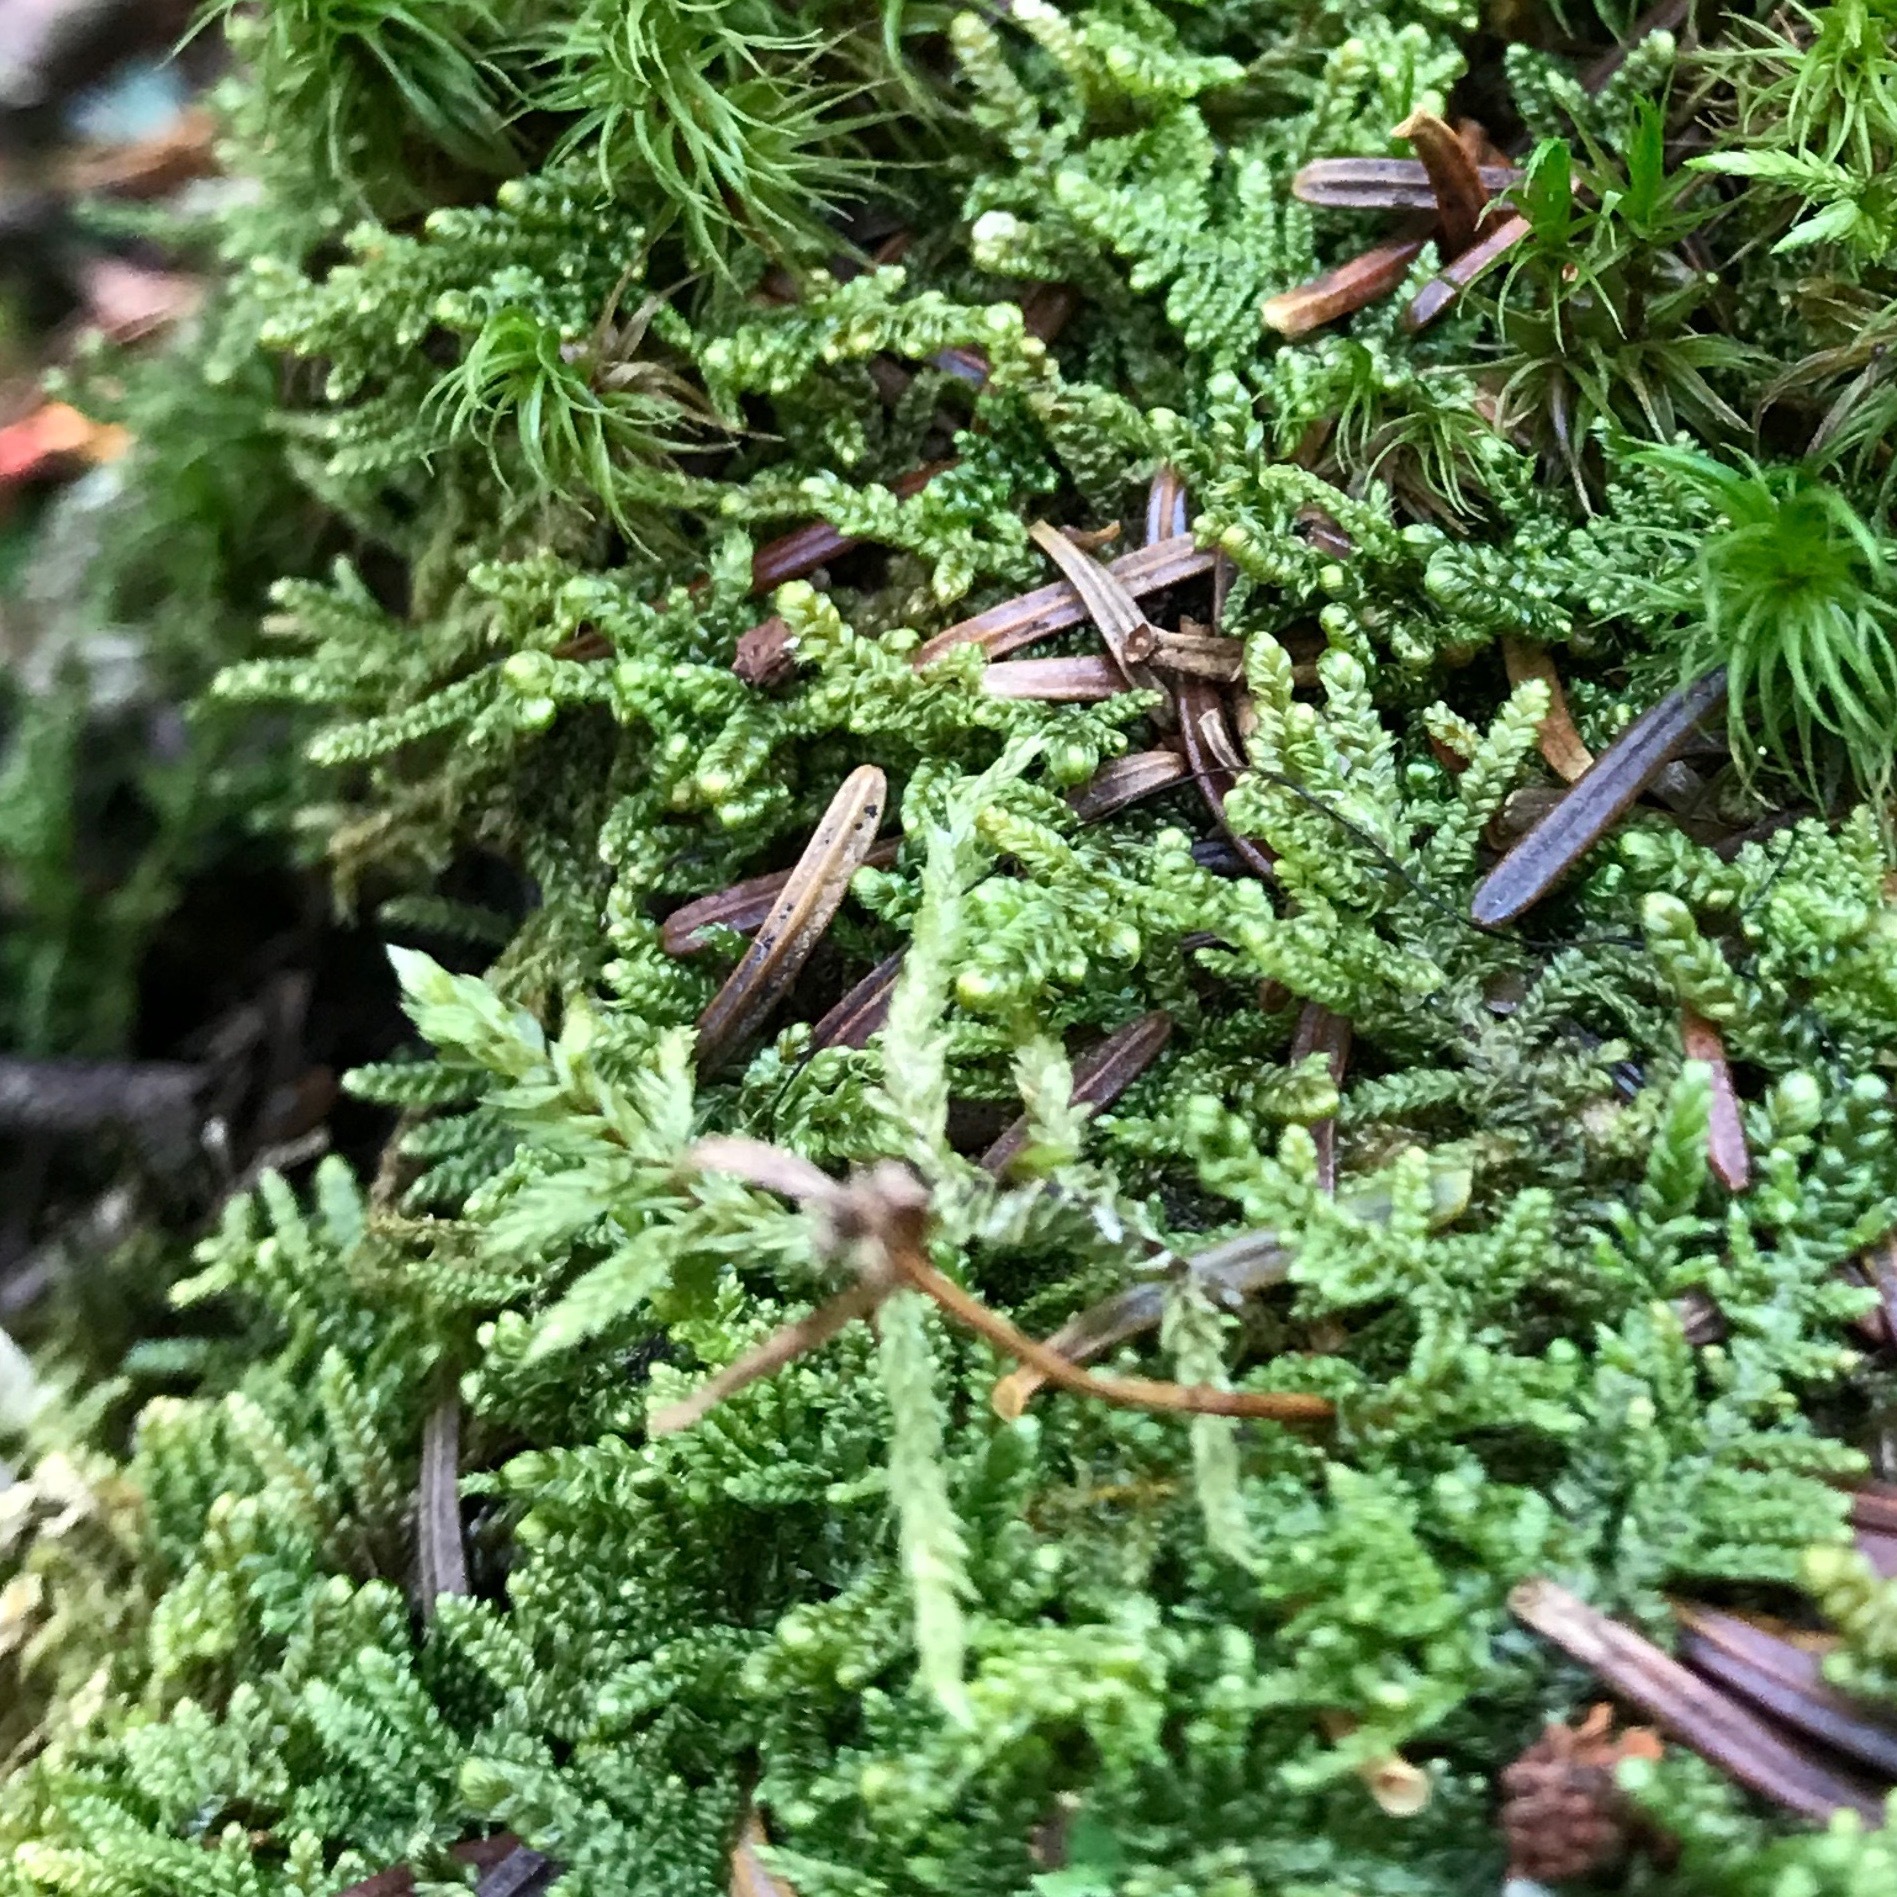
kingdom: Plantae
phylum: Bryophyta
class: Bryopsida
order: Hypnales
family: Callicladiaceae
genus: Callicladium
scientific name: Callicladium imponens
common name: Brocade moss
